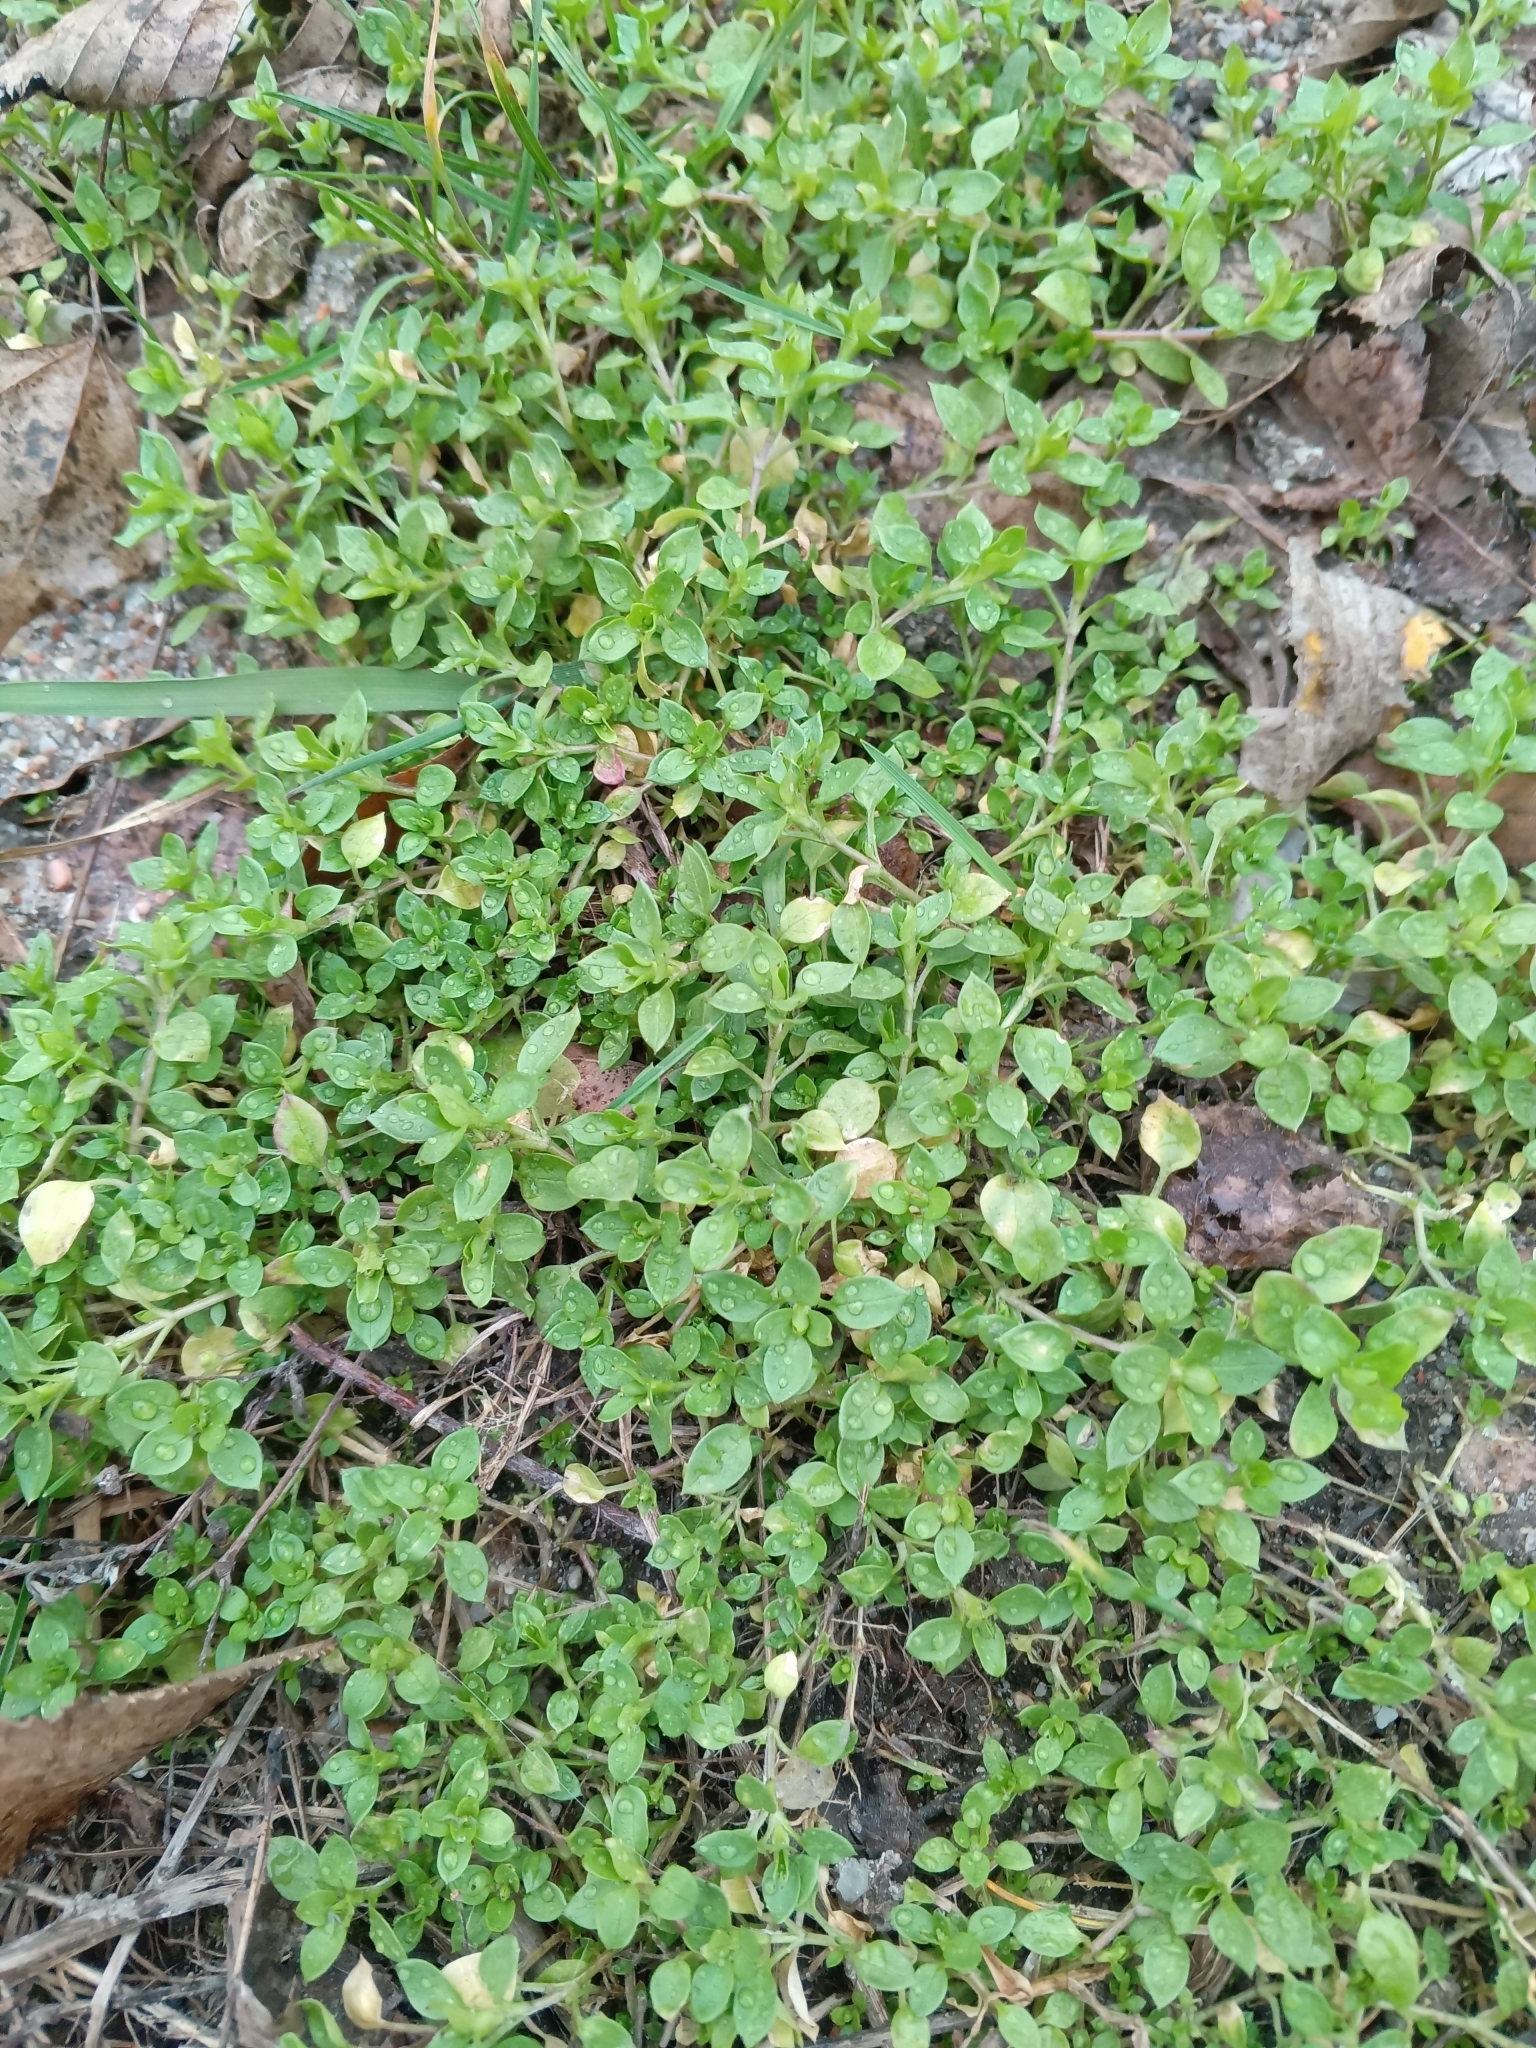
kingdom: Plantae
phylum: Tracheophyta
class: Magnoliopsida
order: Caryophyllales
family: Caryophyllaceae
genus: Stellaria
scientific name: Stellaria media
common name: Common chickweed
